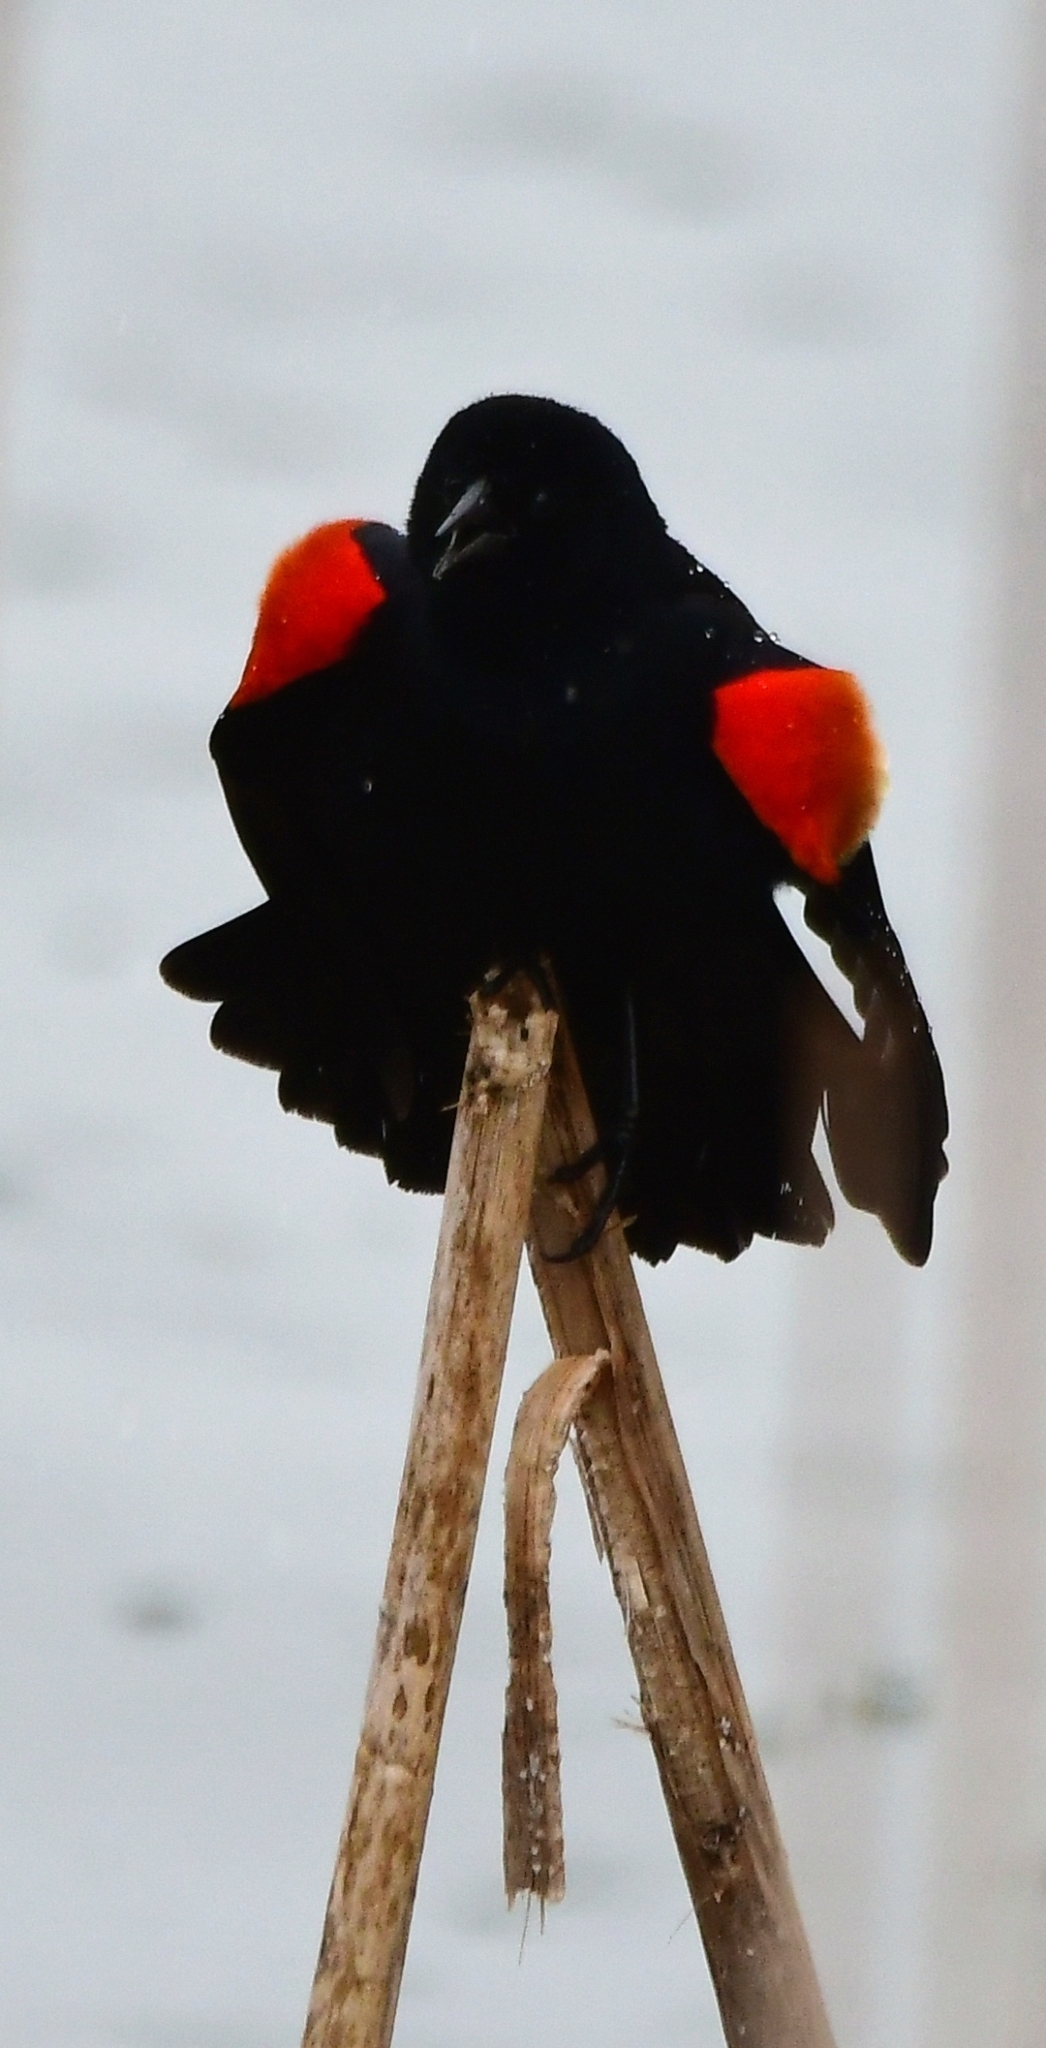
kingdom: Animalia
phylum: Chordata
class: Aves
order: Passeriformes
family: Icteridae
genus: Agelaius
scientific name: Agelaius phoeniceus
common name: Red-winged blackbird
